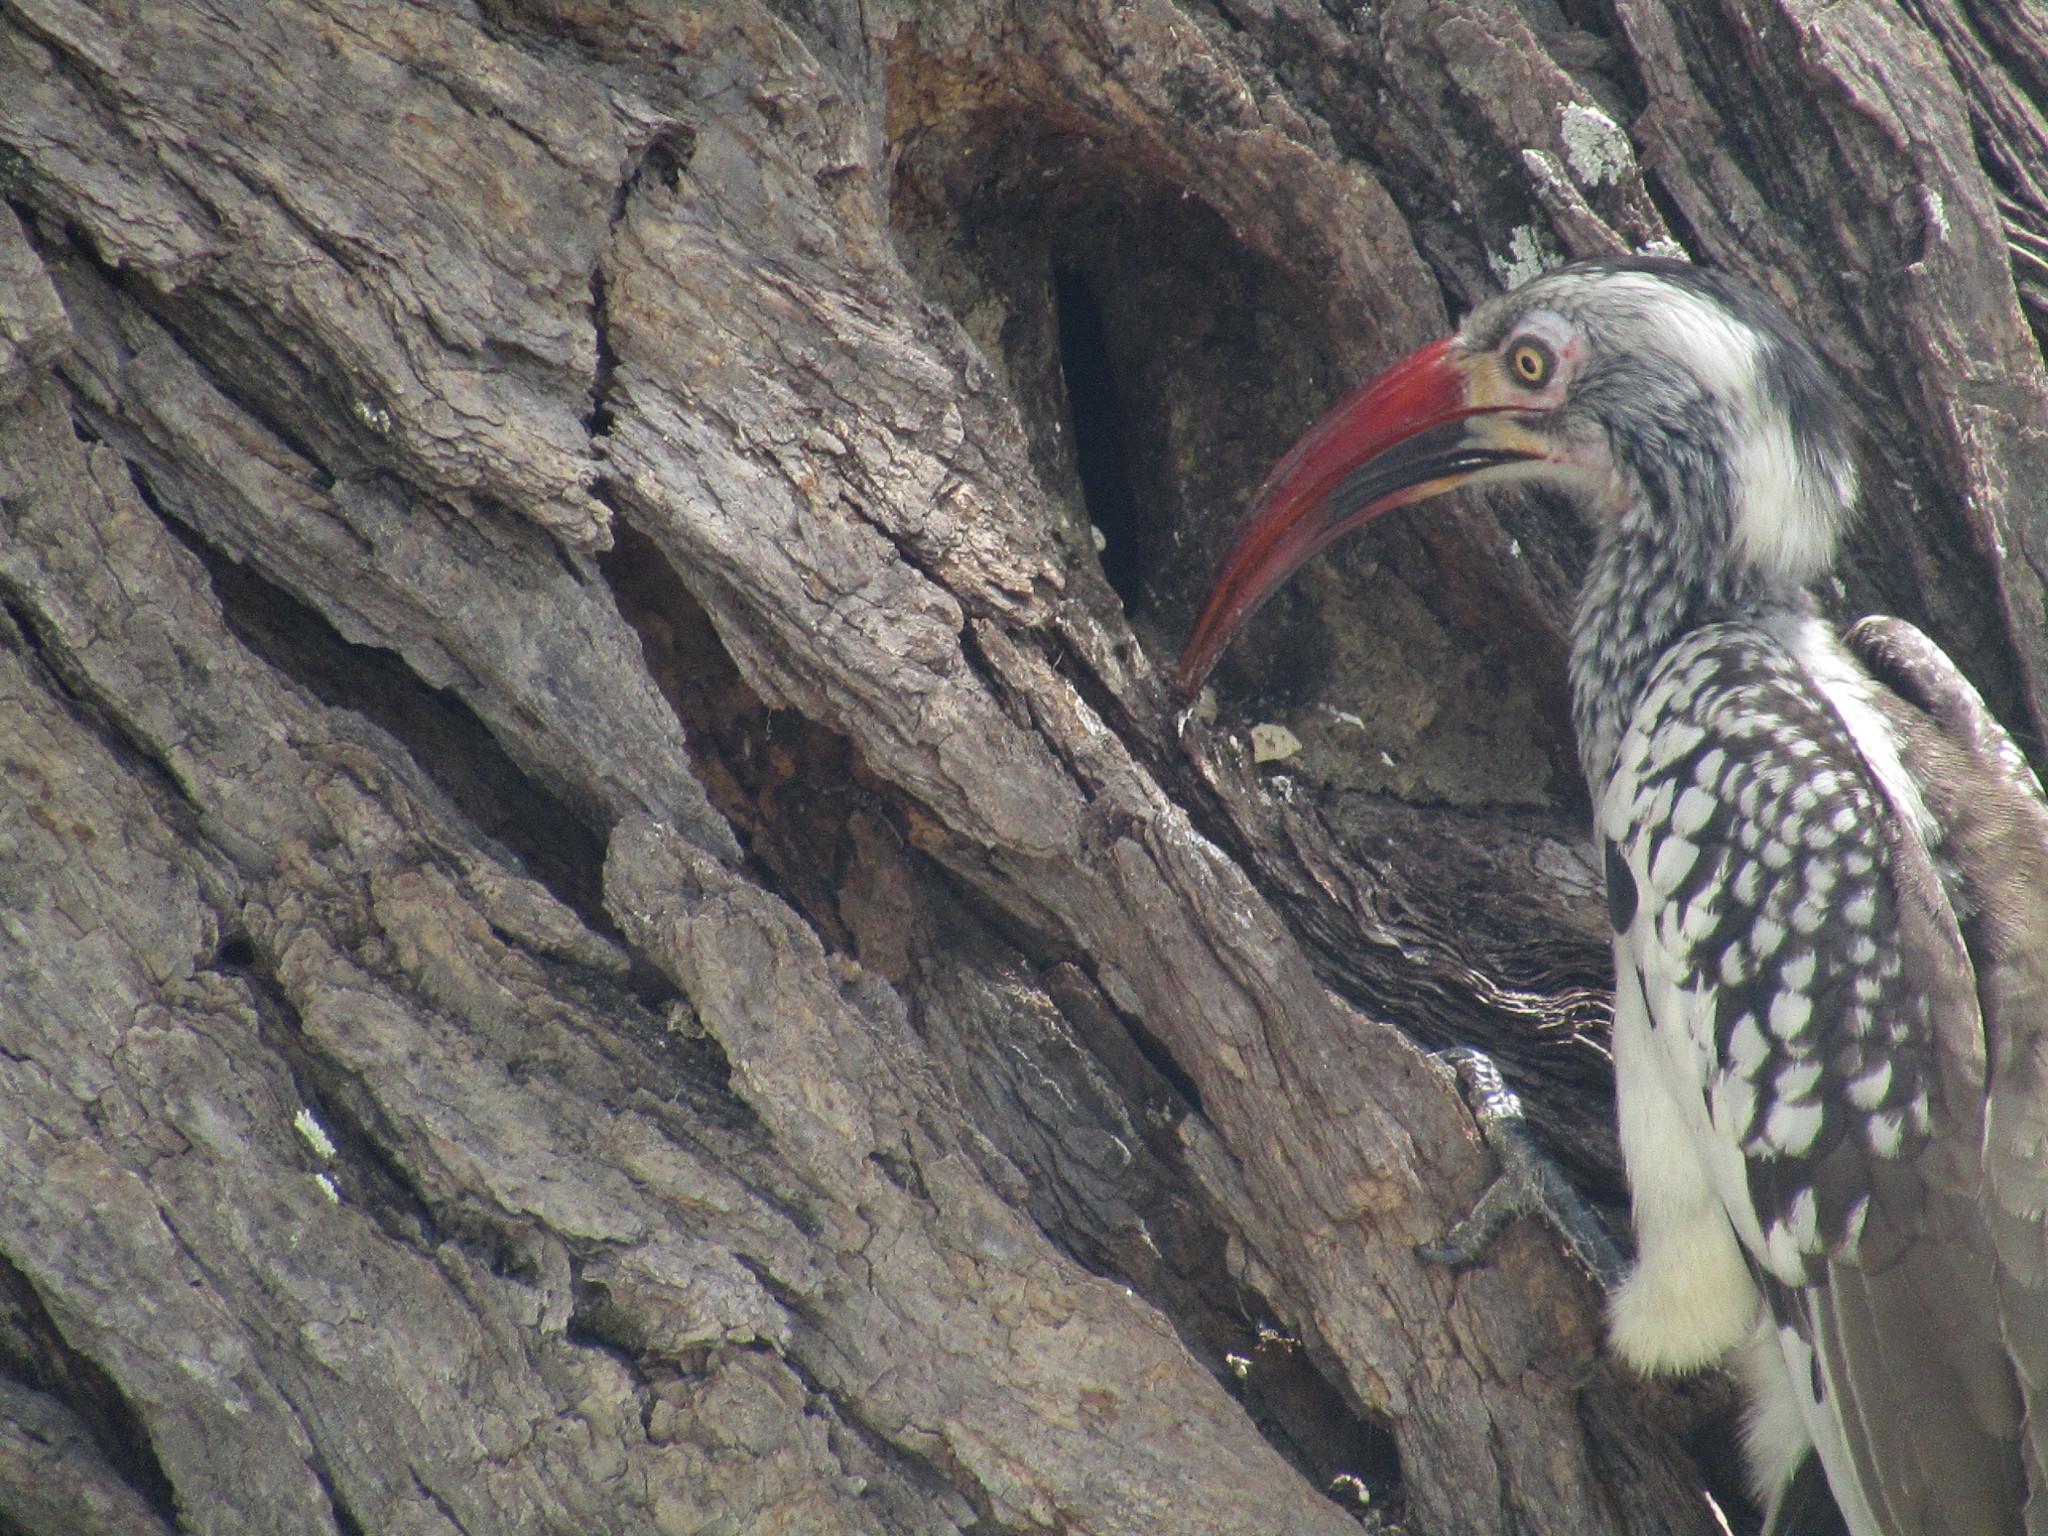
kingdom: Animalia
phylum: Chordata
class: Aves
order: Bucerotiformes
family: Bucerotidae
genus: Tockus
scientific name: Tockus rufirostris
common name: Southern red-billed hornbill
